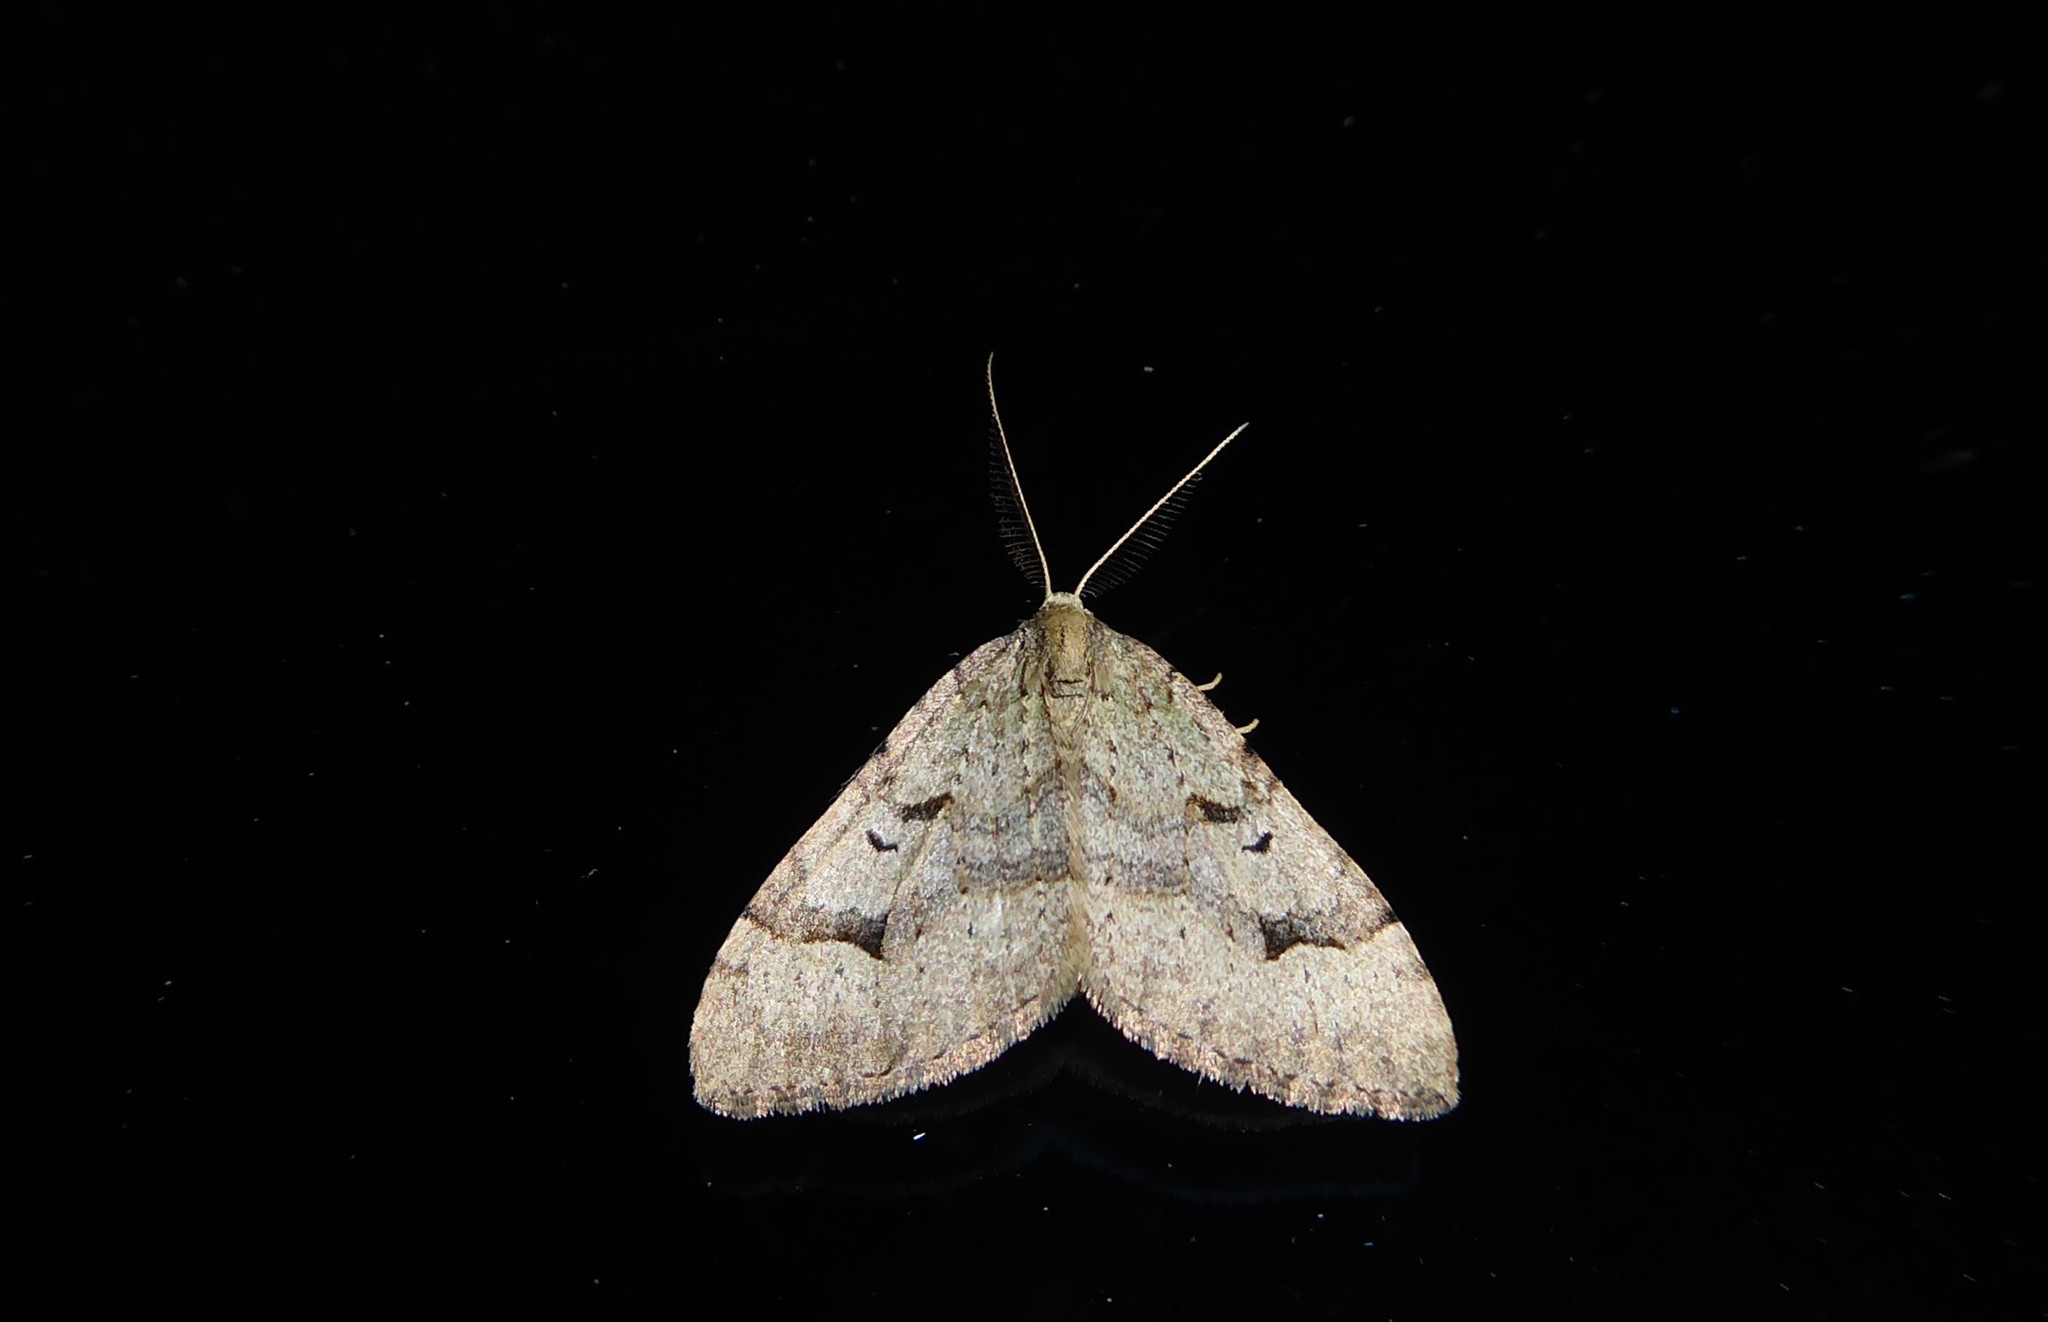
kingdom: Animalia
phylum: Arthropoda
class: Insecta
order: Lepidoptera
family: Geometridae
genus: Epyaxa
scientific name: Epyaxa rosearia
